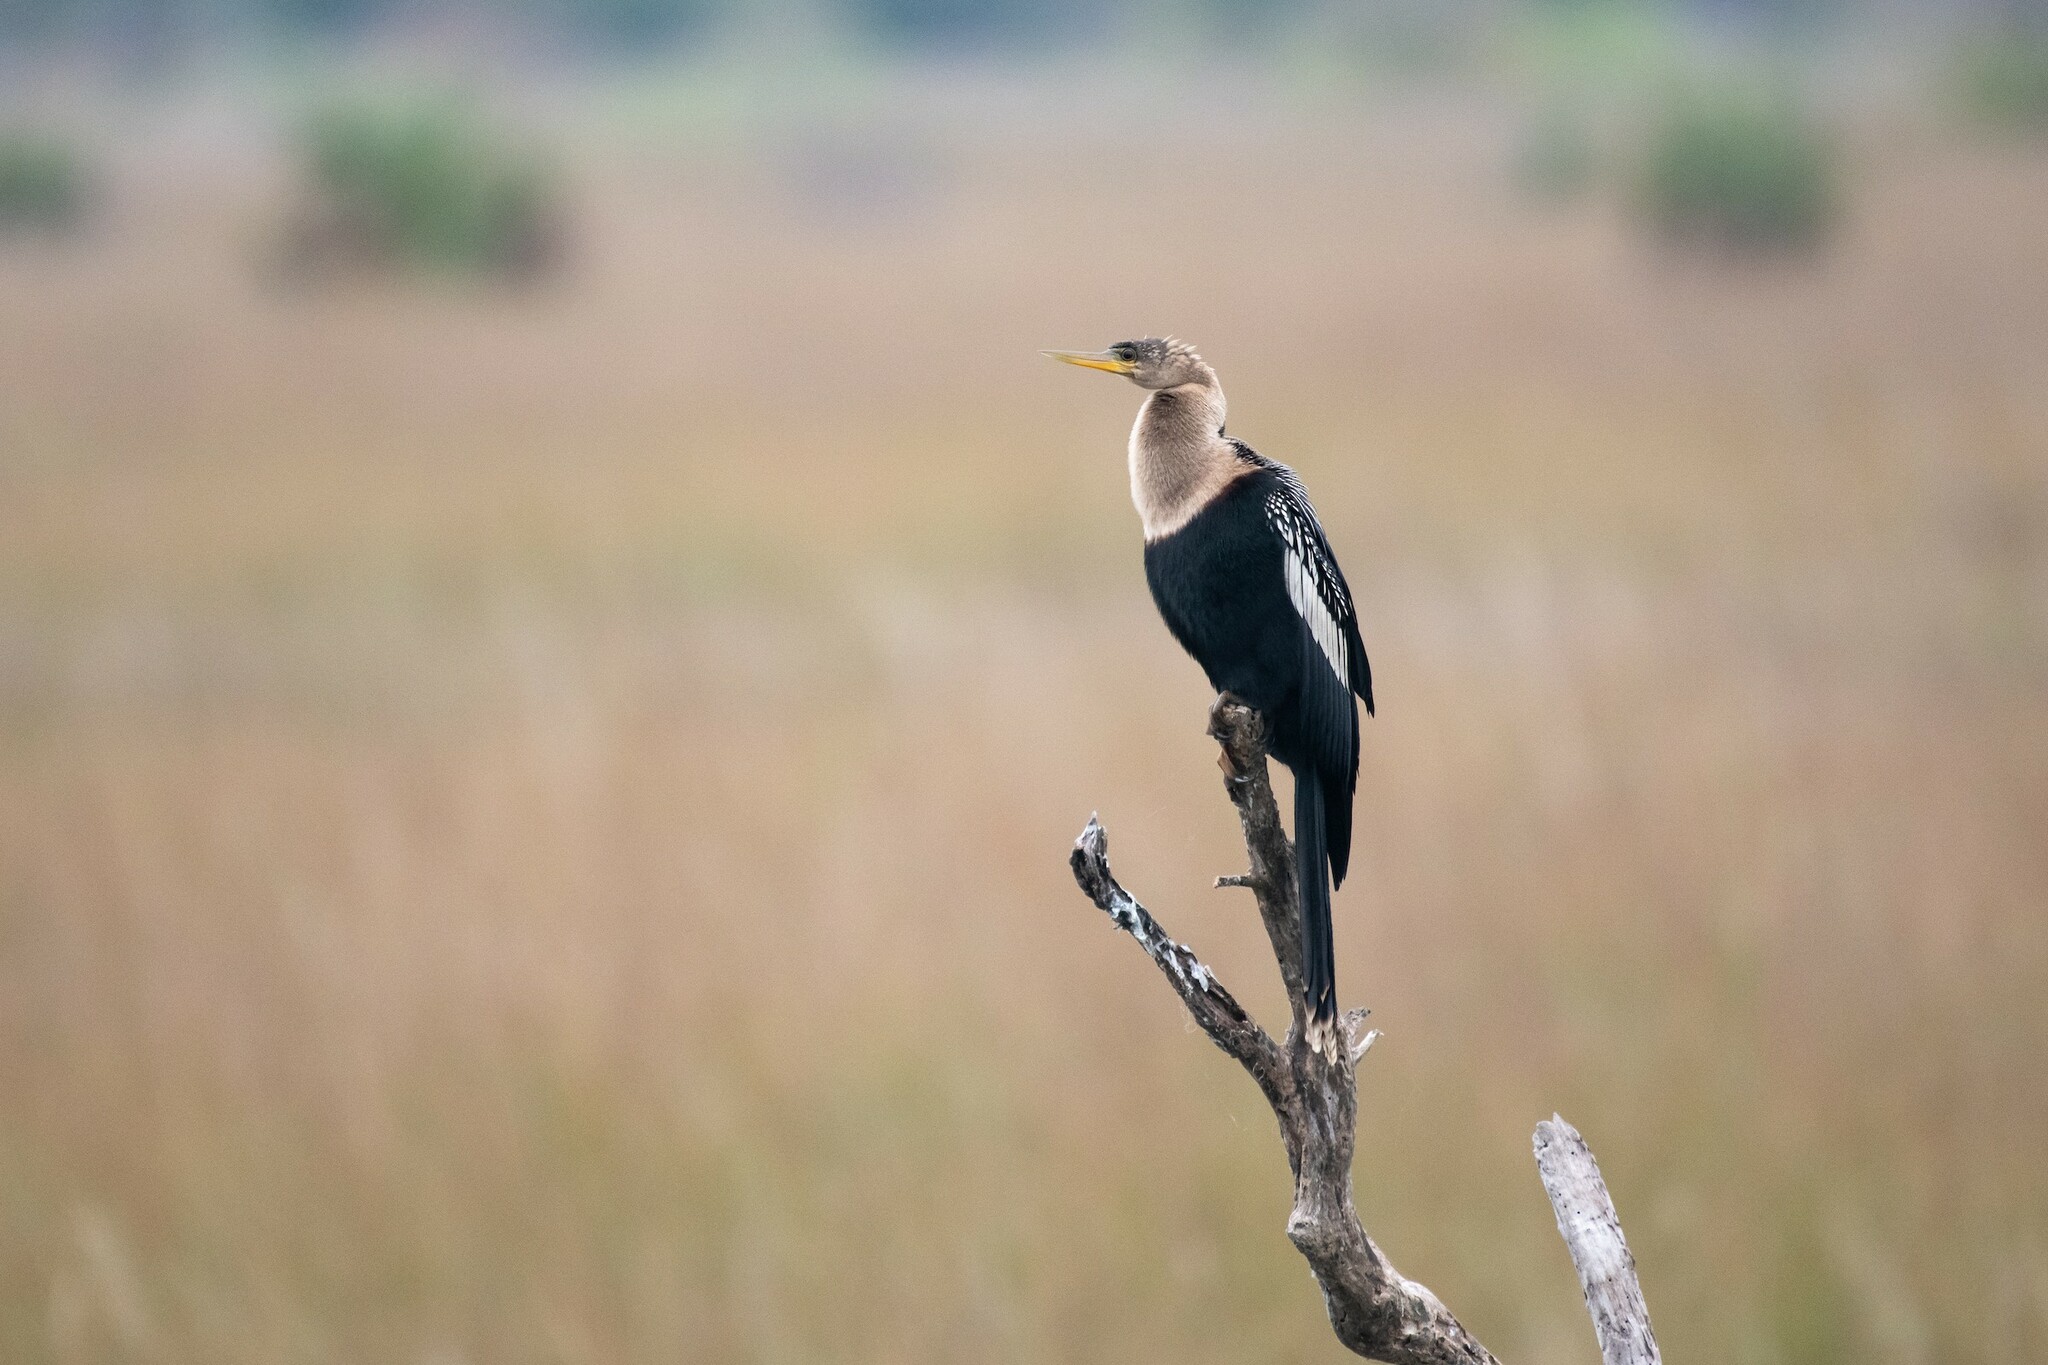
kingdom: Animalia
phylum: Chordata
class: Aves
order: Suliformes
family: Anhingidae
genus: Anhinga
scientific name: Anhinga anhinga
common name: Anhinga
